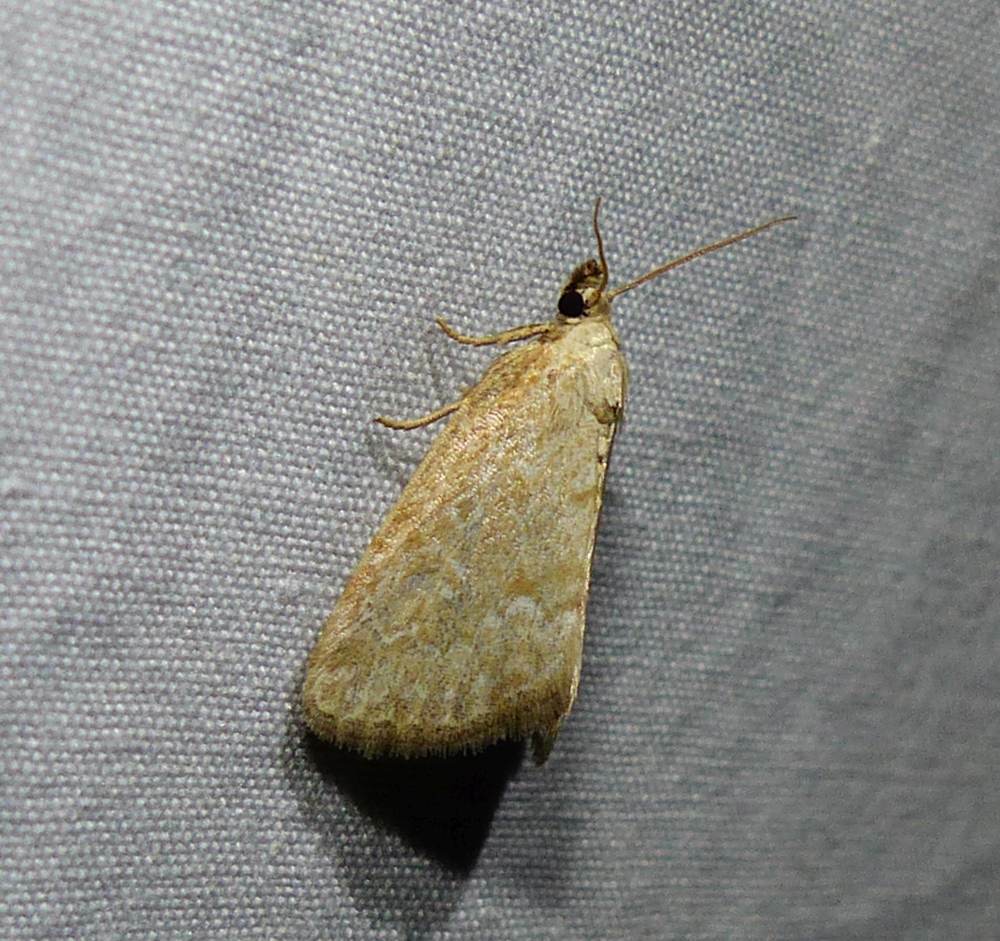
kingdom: Animalia
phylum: Arthropoda
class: Insecta
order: Lepidoptera
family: Noctuidae
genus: Protodeltote
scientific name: Protodeltote albidula
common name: Pale glyph
